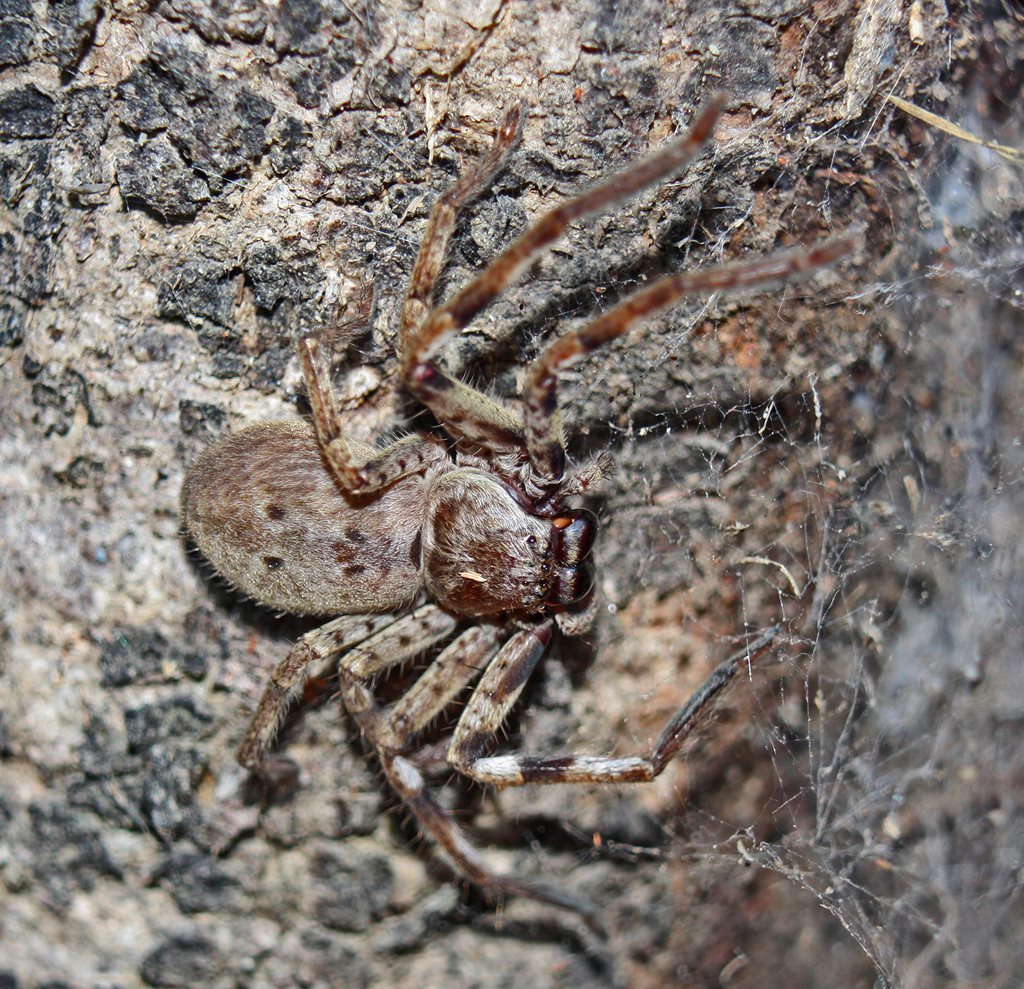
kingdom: Animalia
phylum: Arthropoda
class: Arachnida
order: Araneae
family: Sparassidae
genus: Isopeda
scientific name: Isopeda vasta
